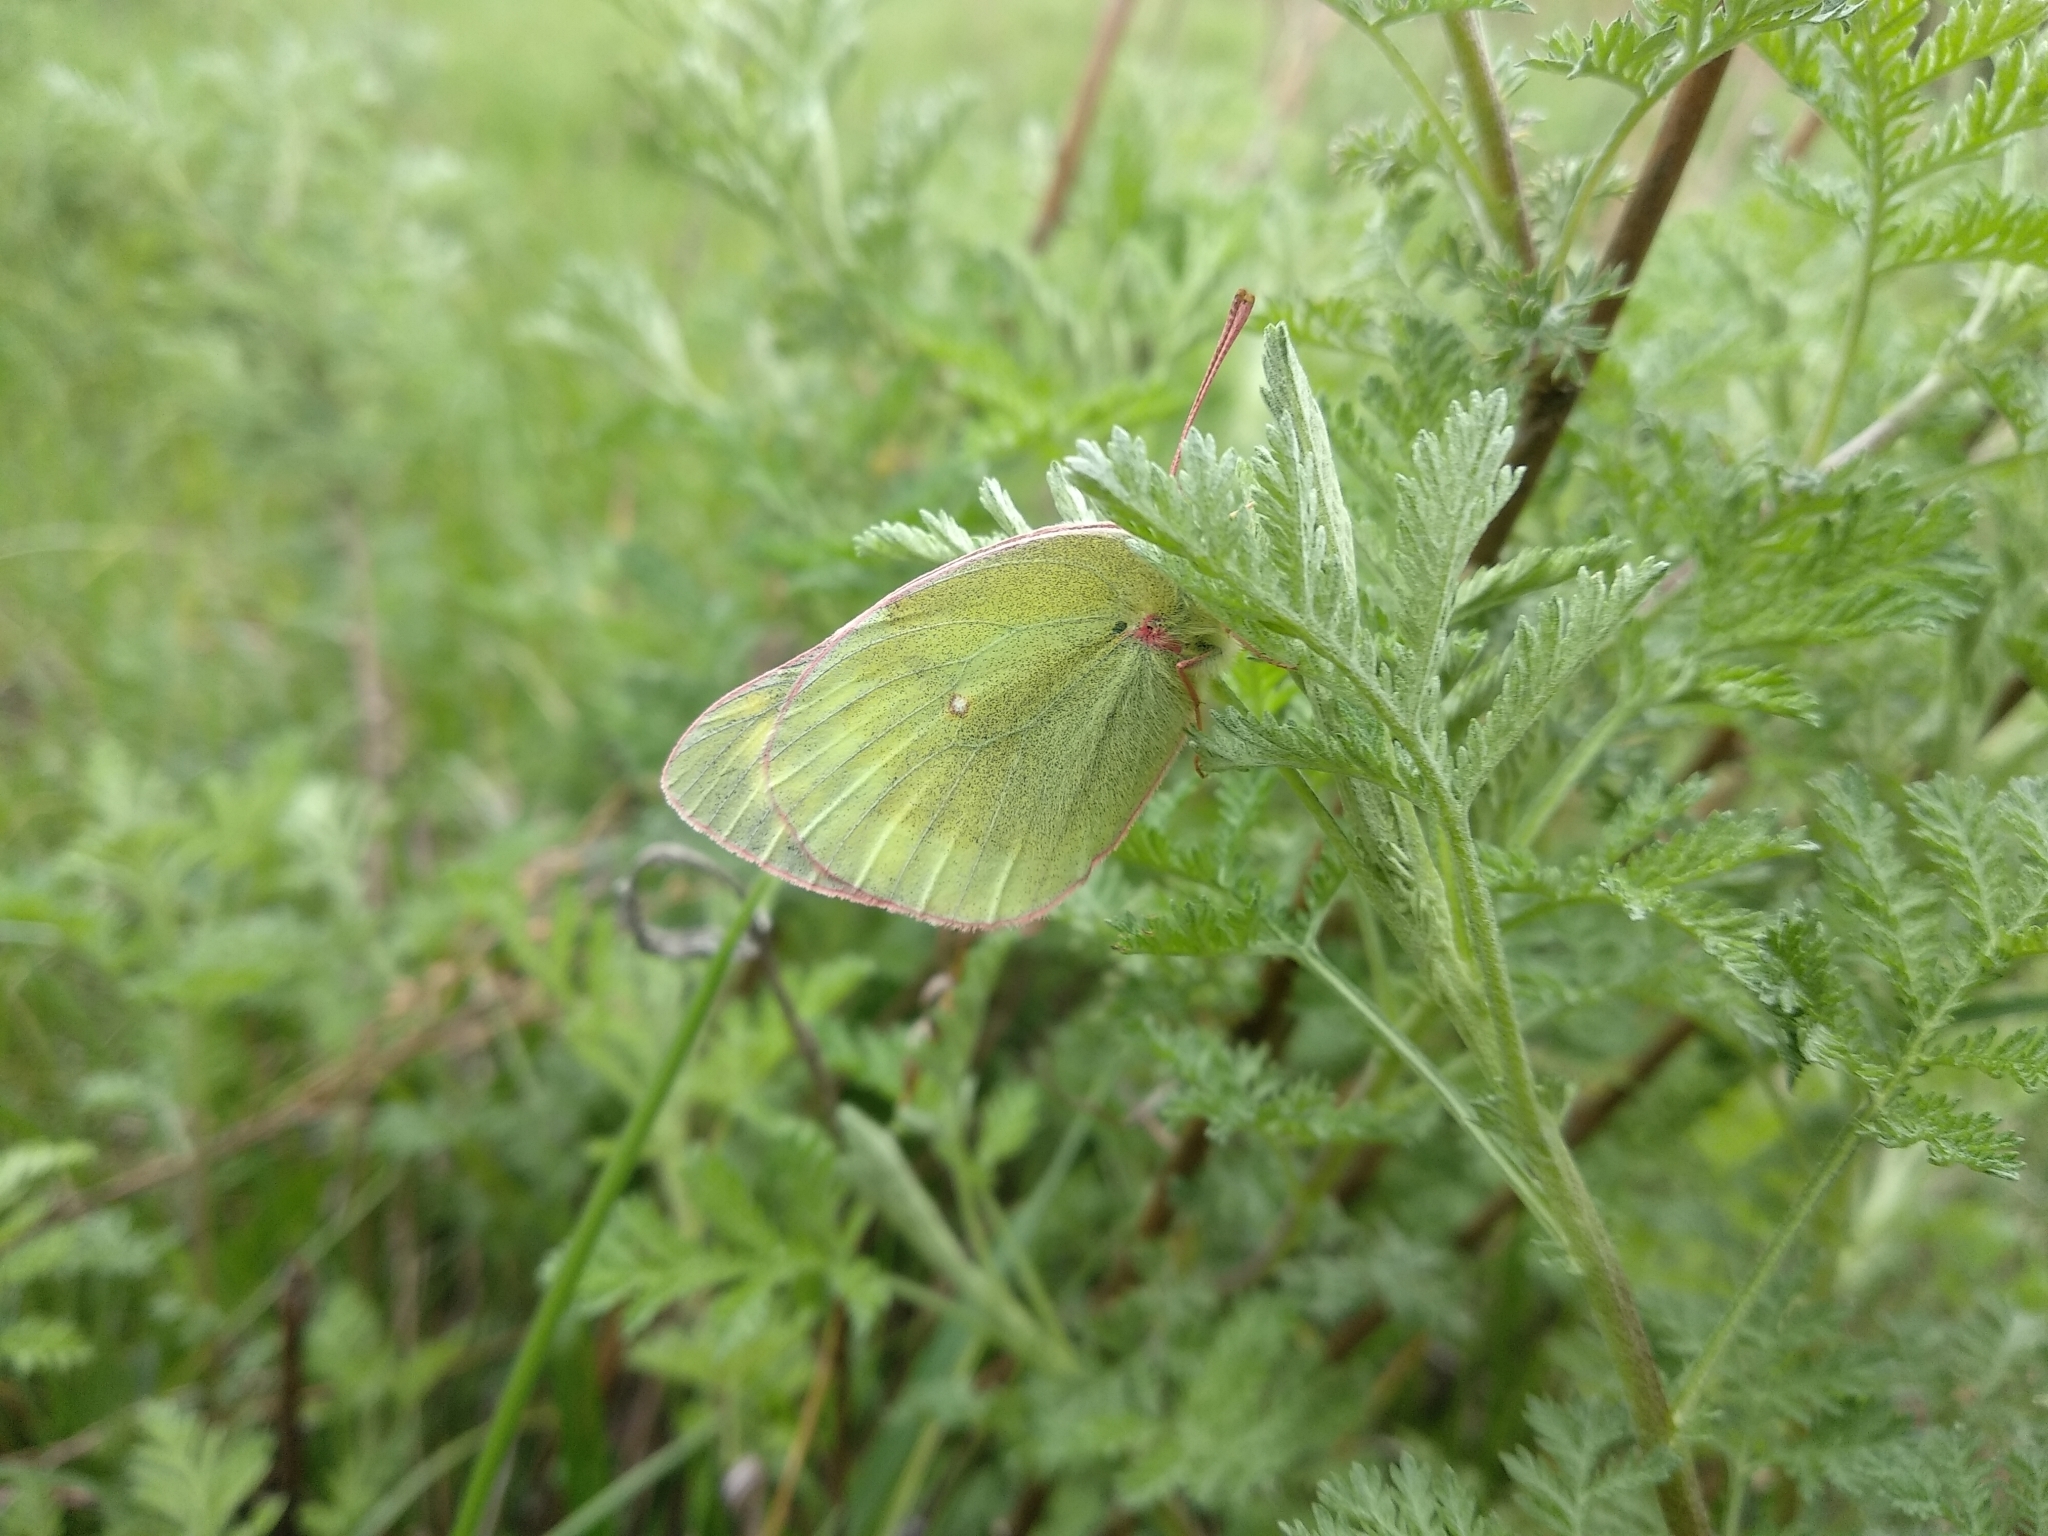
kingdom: Animalia
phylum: Arthropoda
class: Insecta
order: Lepidoptera
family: Pieridae
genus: Colias
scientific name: Colias tyche
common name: Pale arctic clouded yellow
